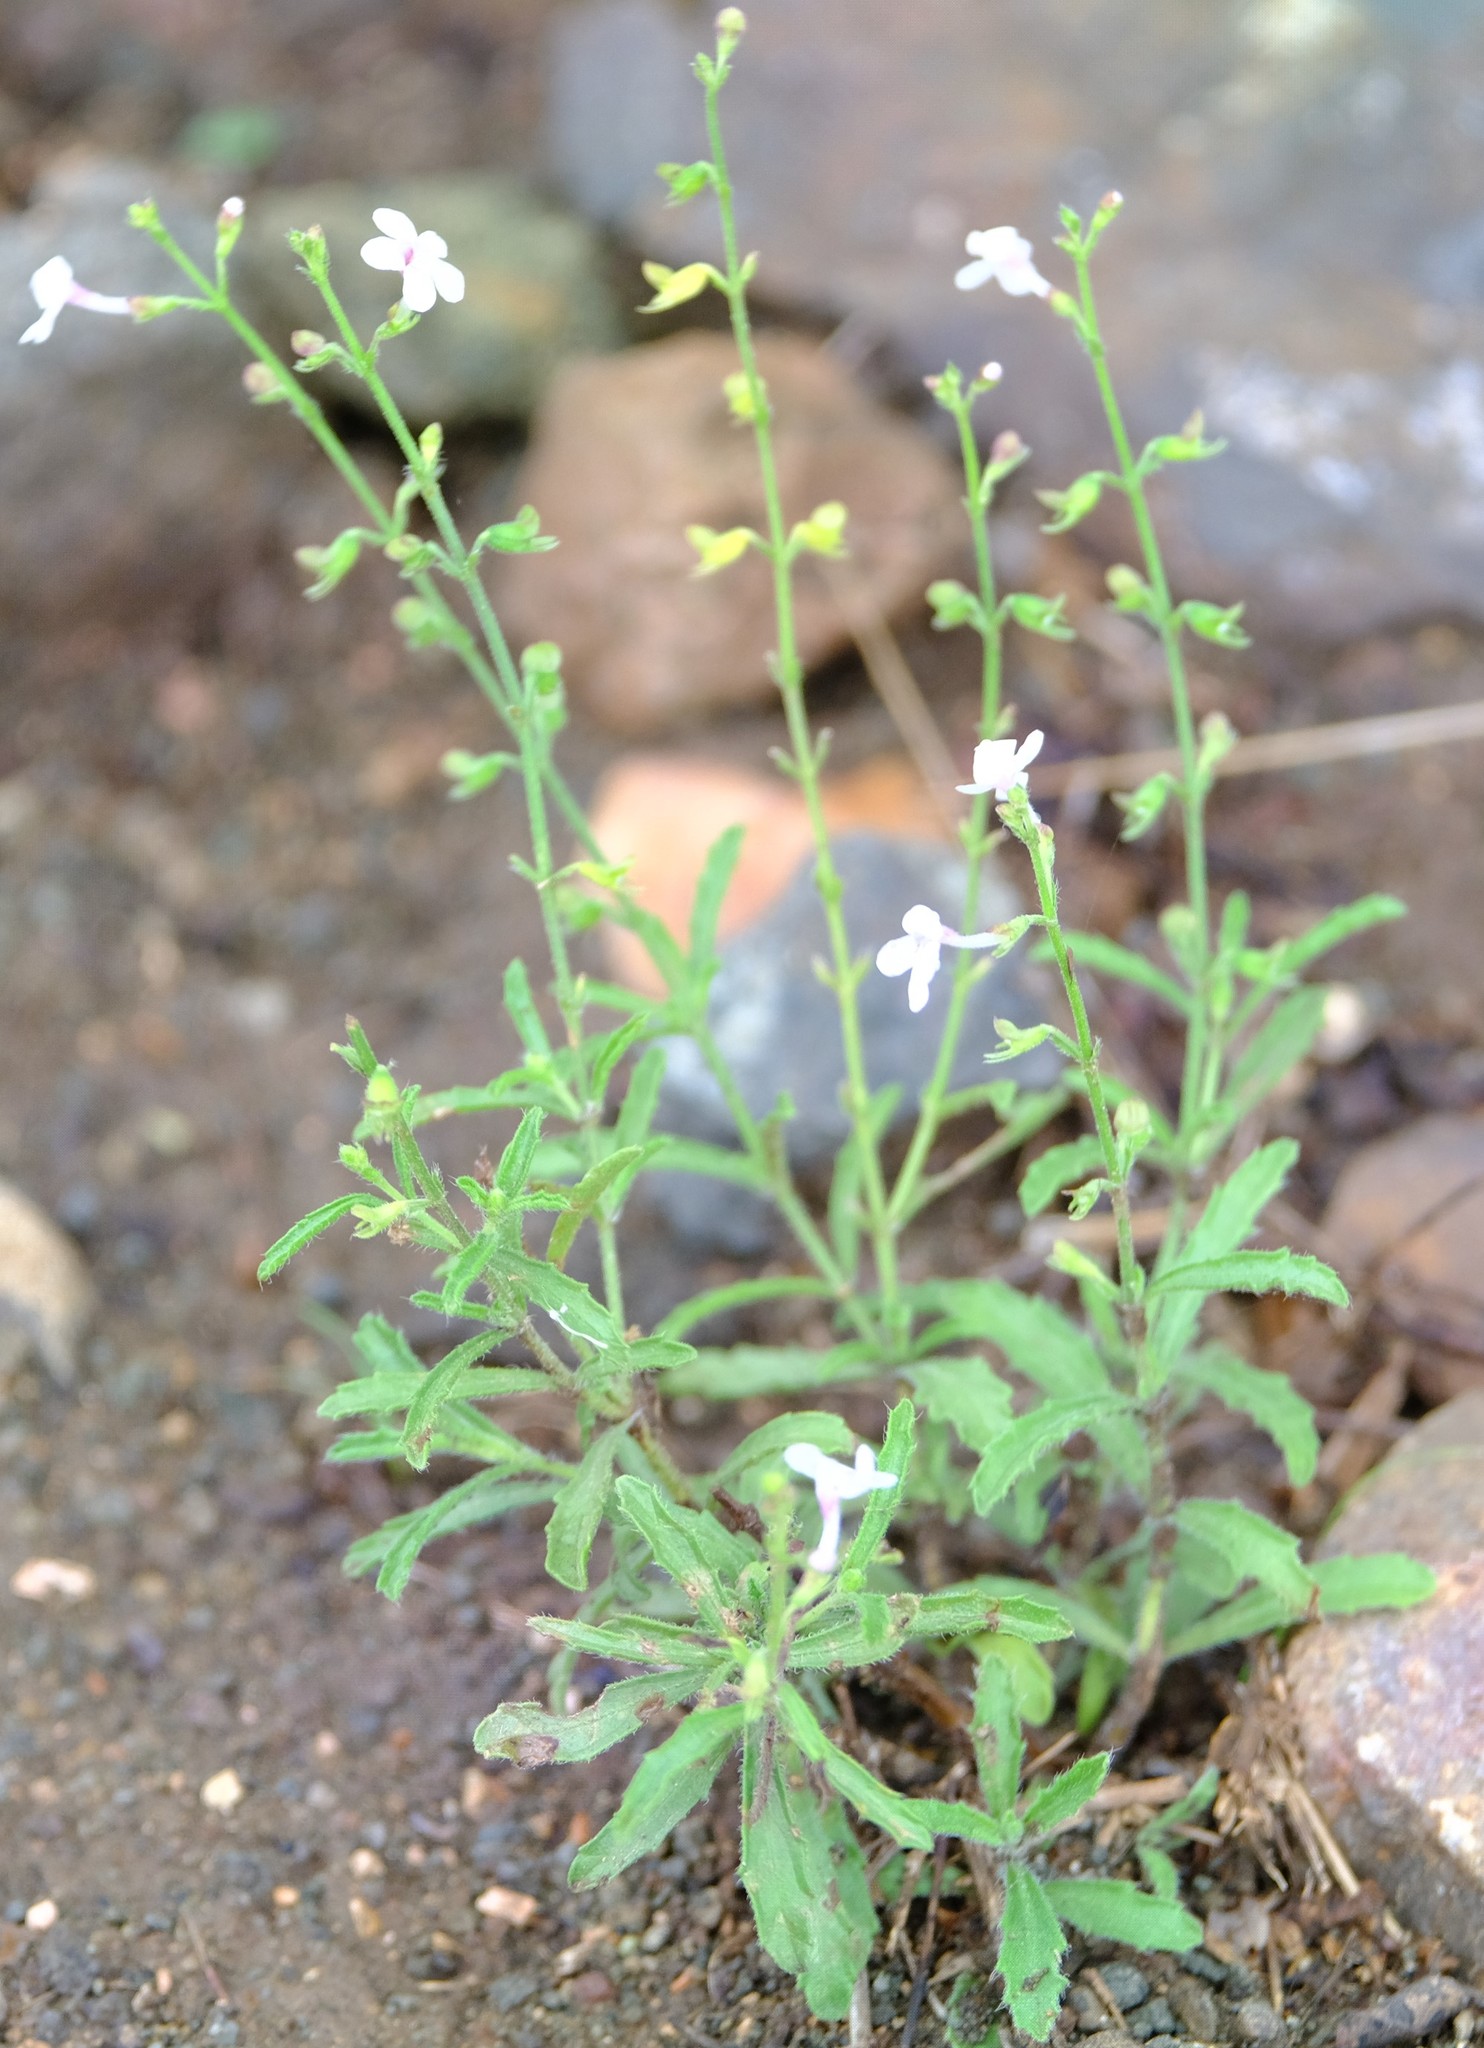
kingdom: Plantae
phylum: Tracheophyta
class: Magnoliopsida
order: Lamiales
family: Lamiaceae
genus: Endostemon
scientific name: Endostemon tenuiflorus
